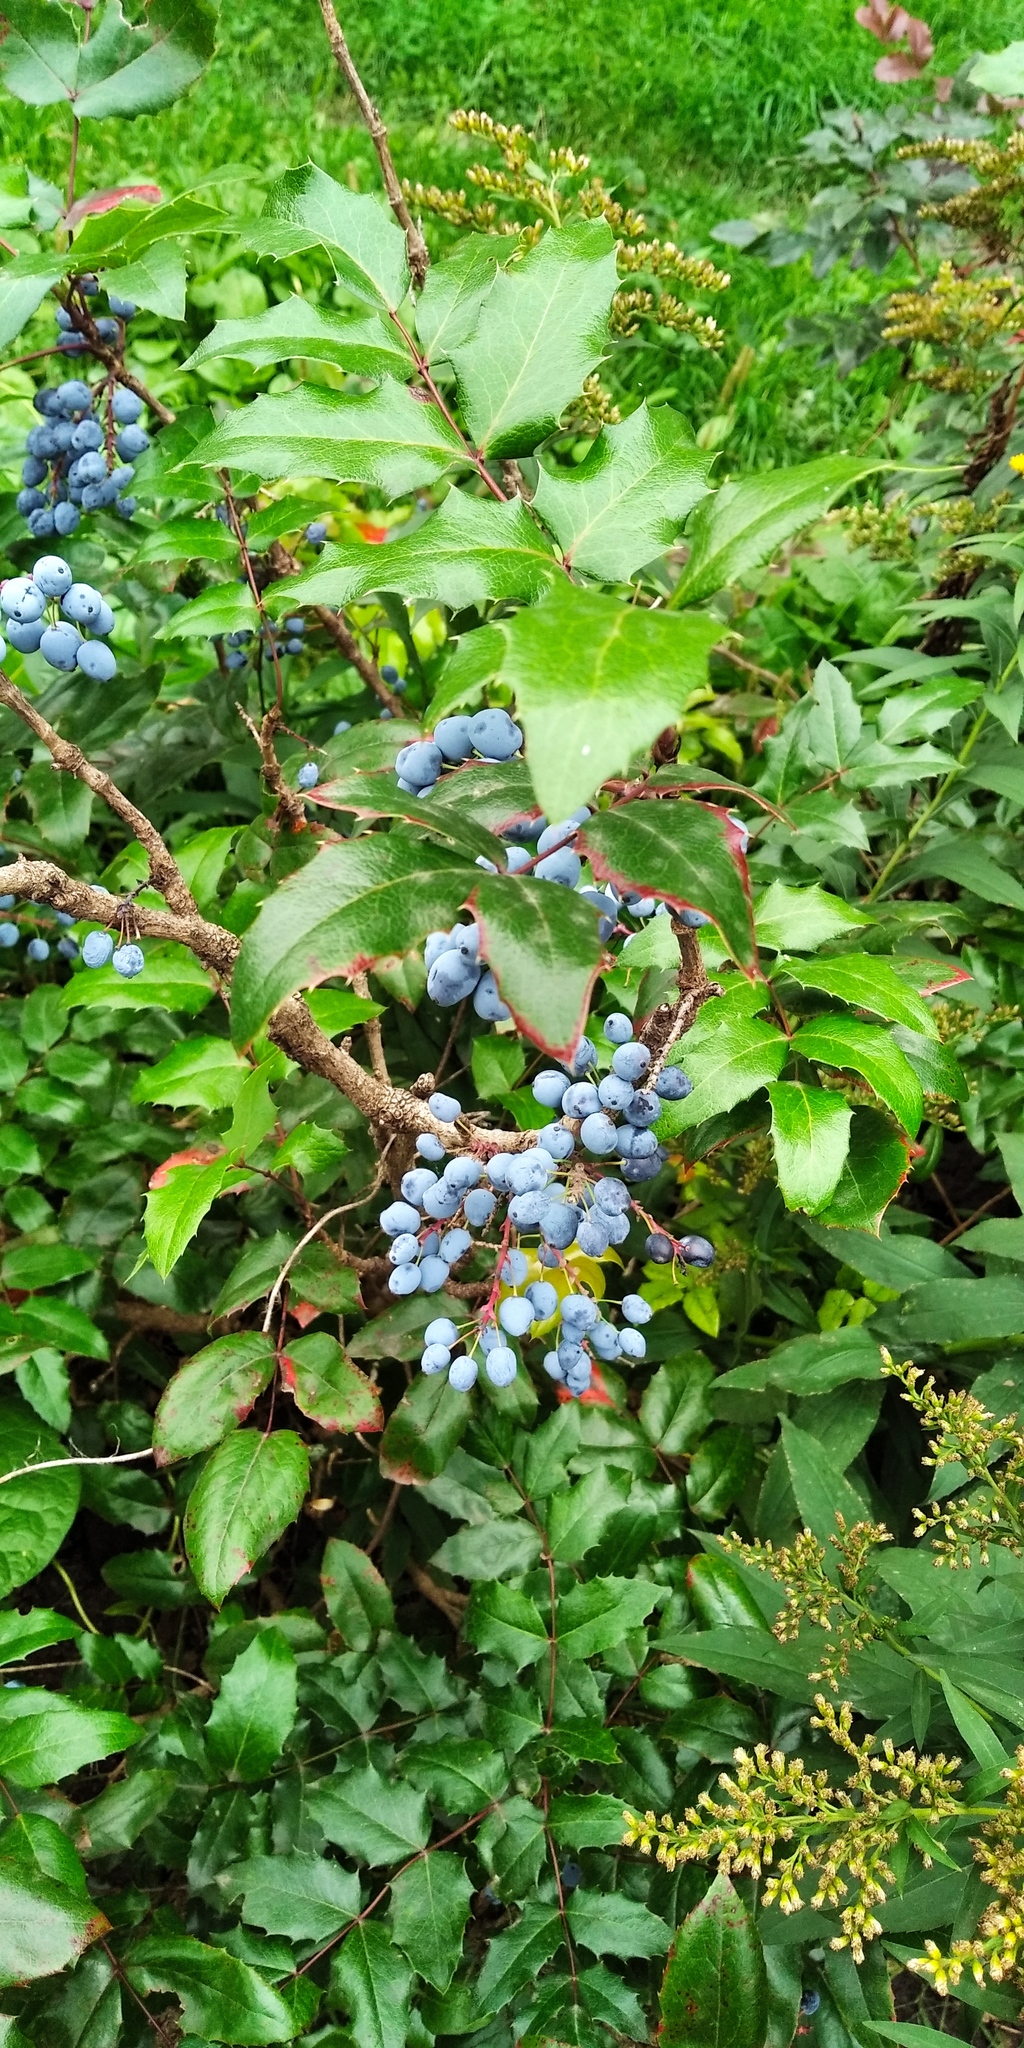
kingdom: Plantae
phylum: Tracheophyta
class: Magnoliopsida
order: Ranunculales
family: Berberidaceae
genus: Mahonia
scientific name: Mahonia aquifolium
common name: Oregon-grape
